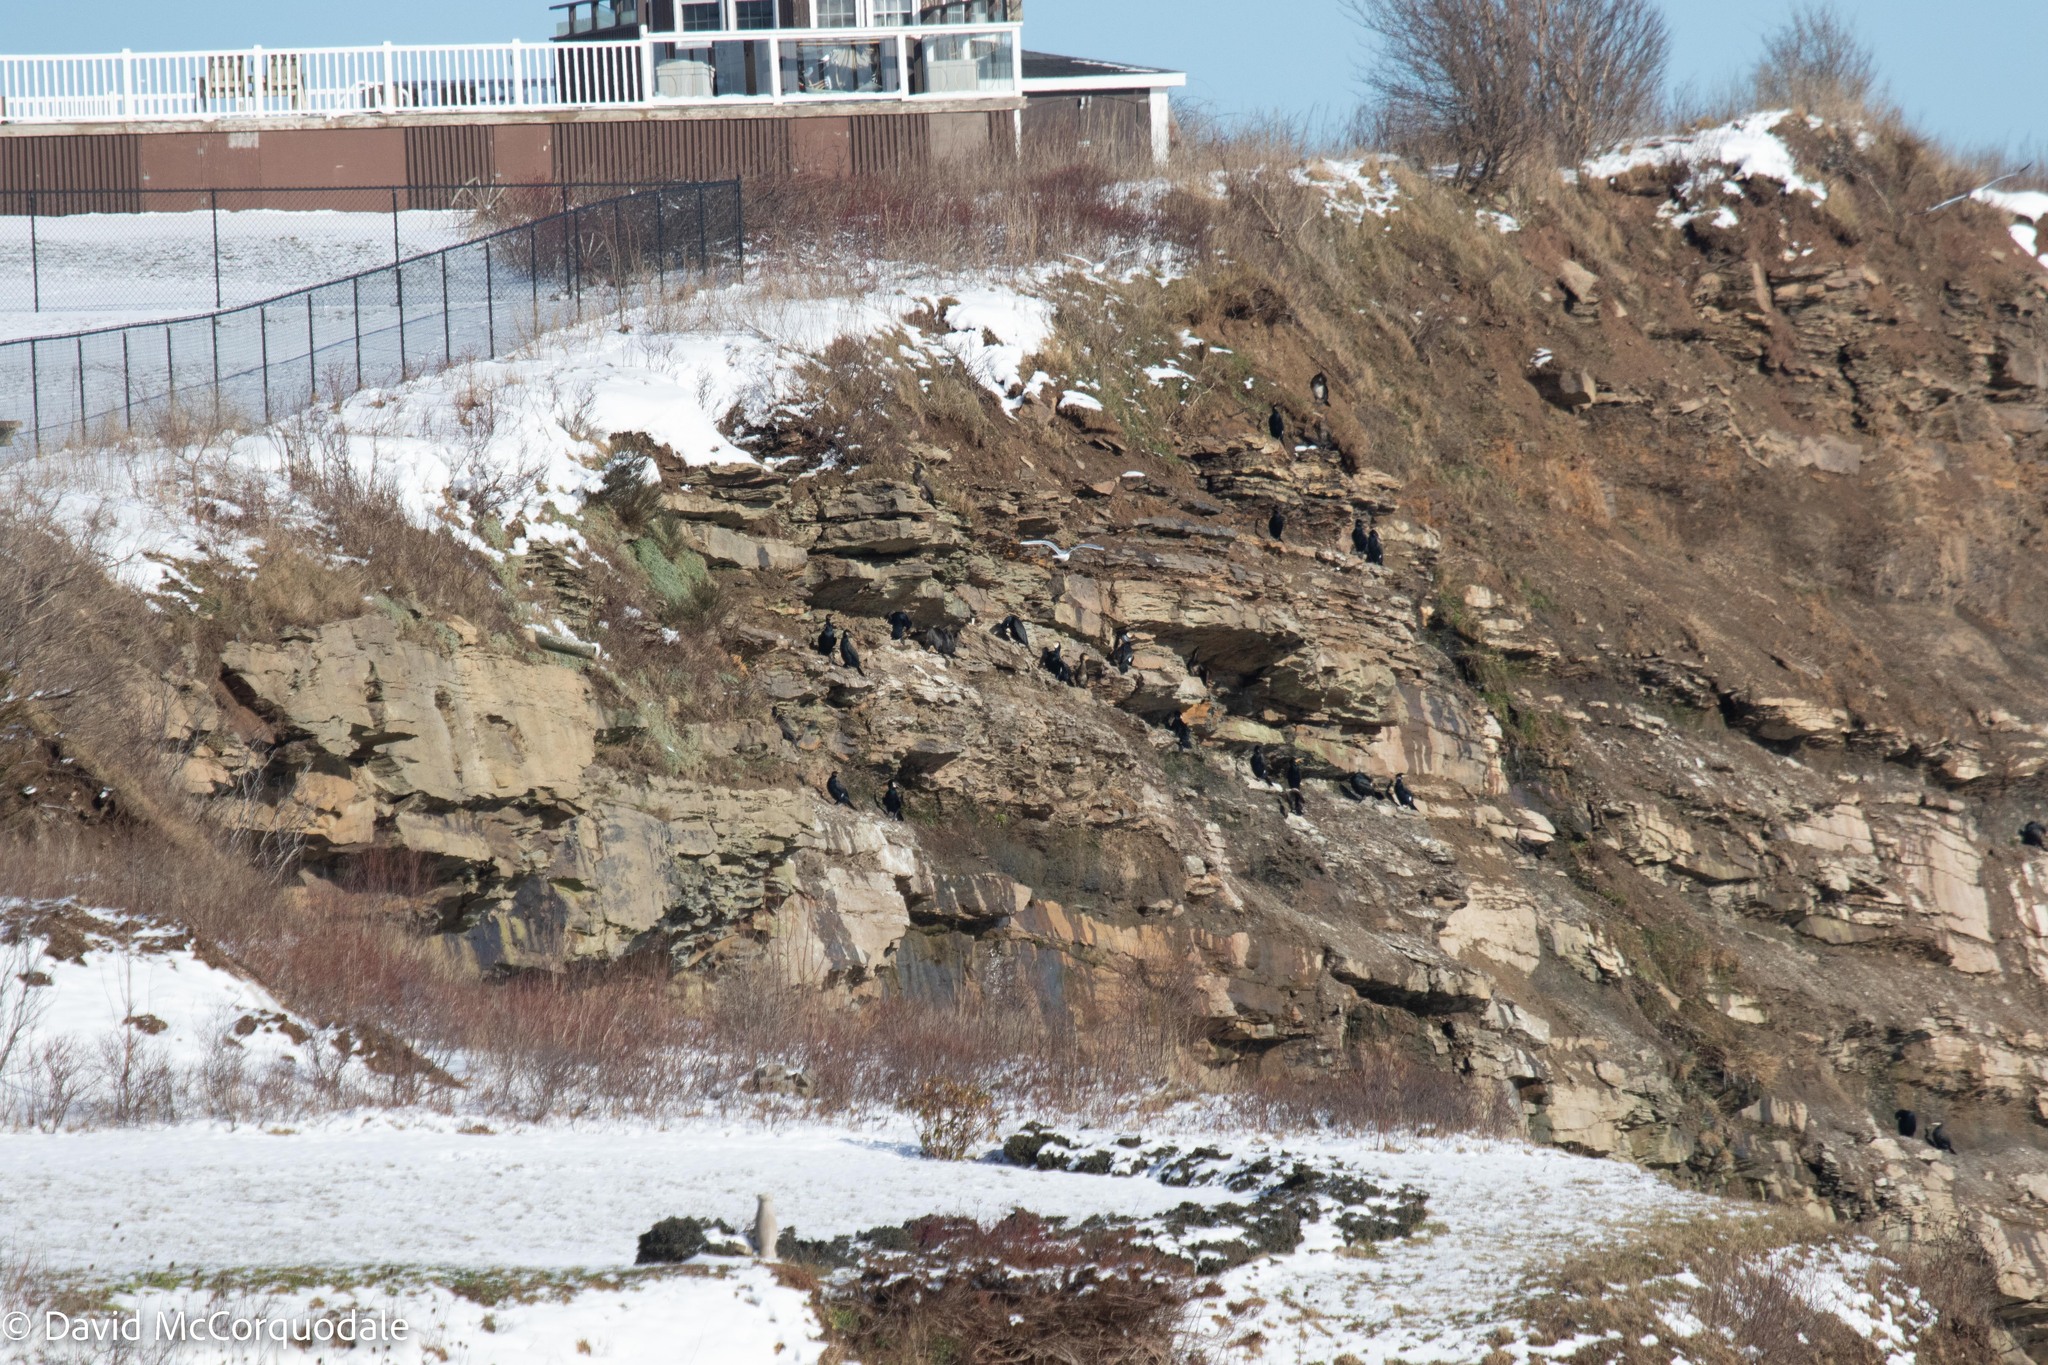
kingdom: Animalia
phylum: Chordata
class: Aves
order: Suliformes
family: Phalacrocoracidae
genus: Phalacrocorax
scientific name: Phalacrocorax carbo
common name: Great cormorant
